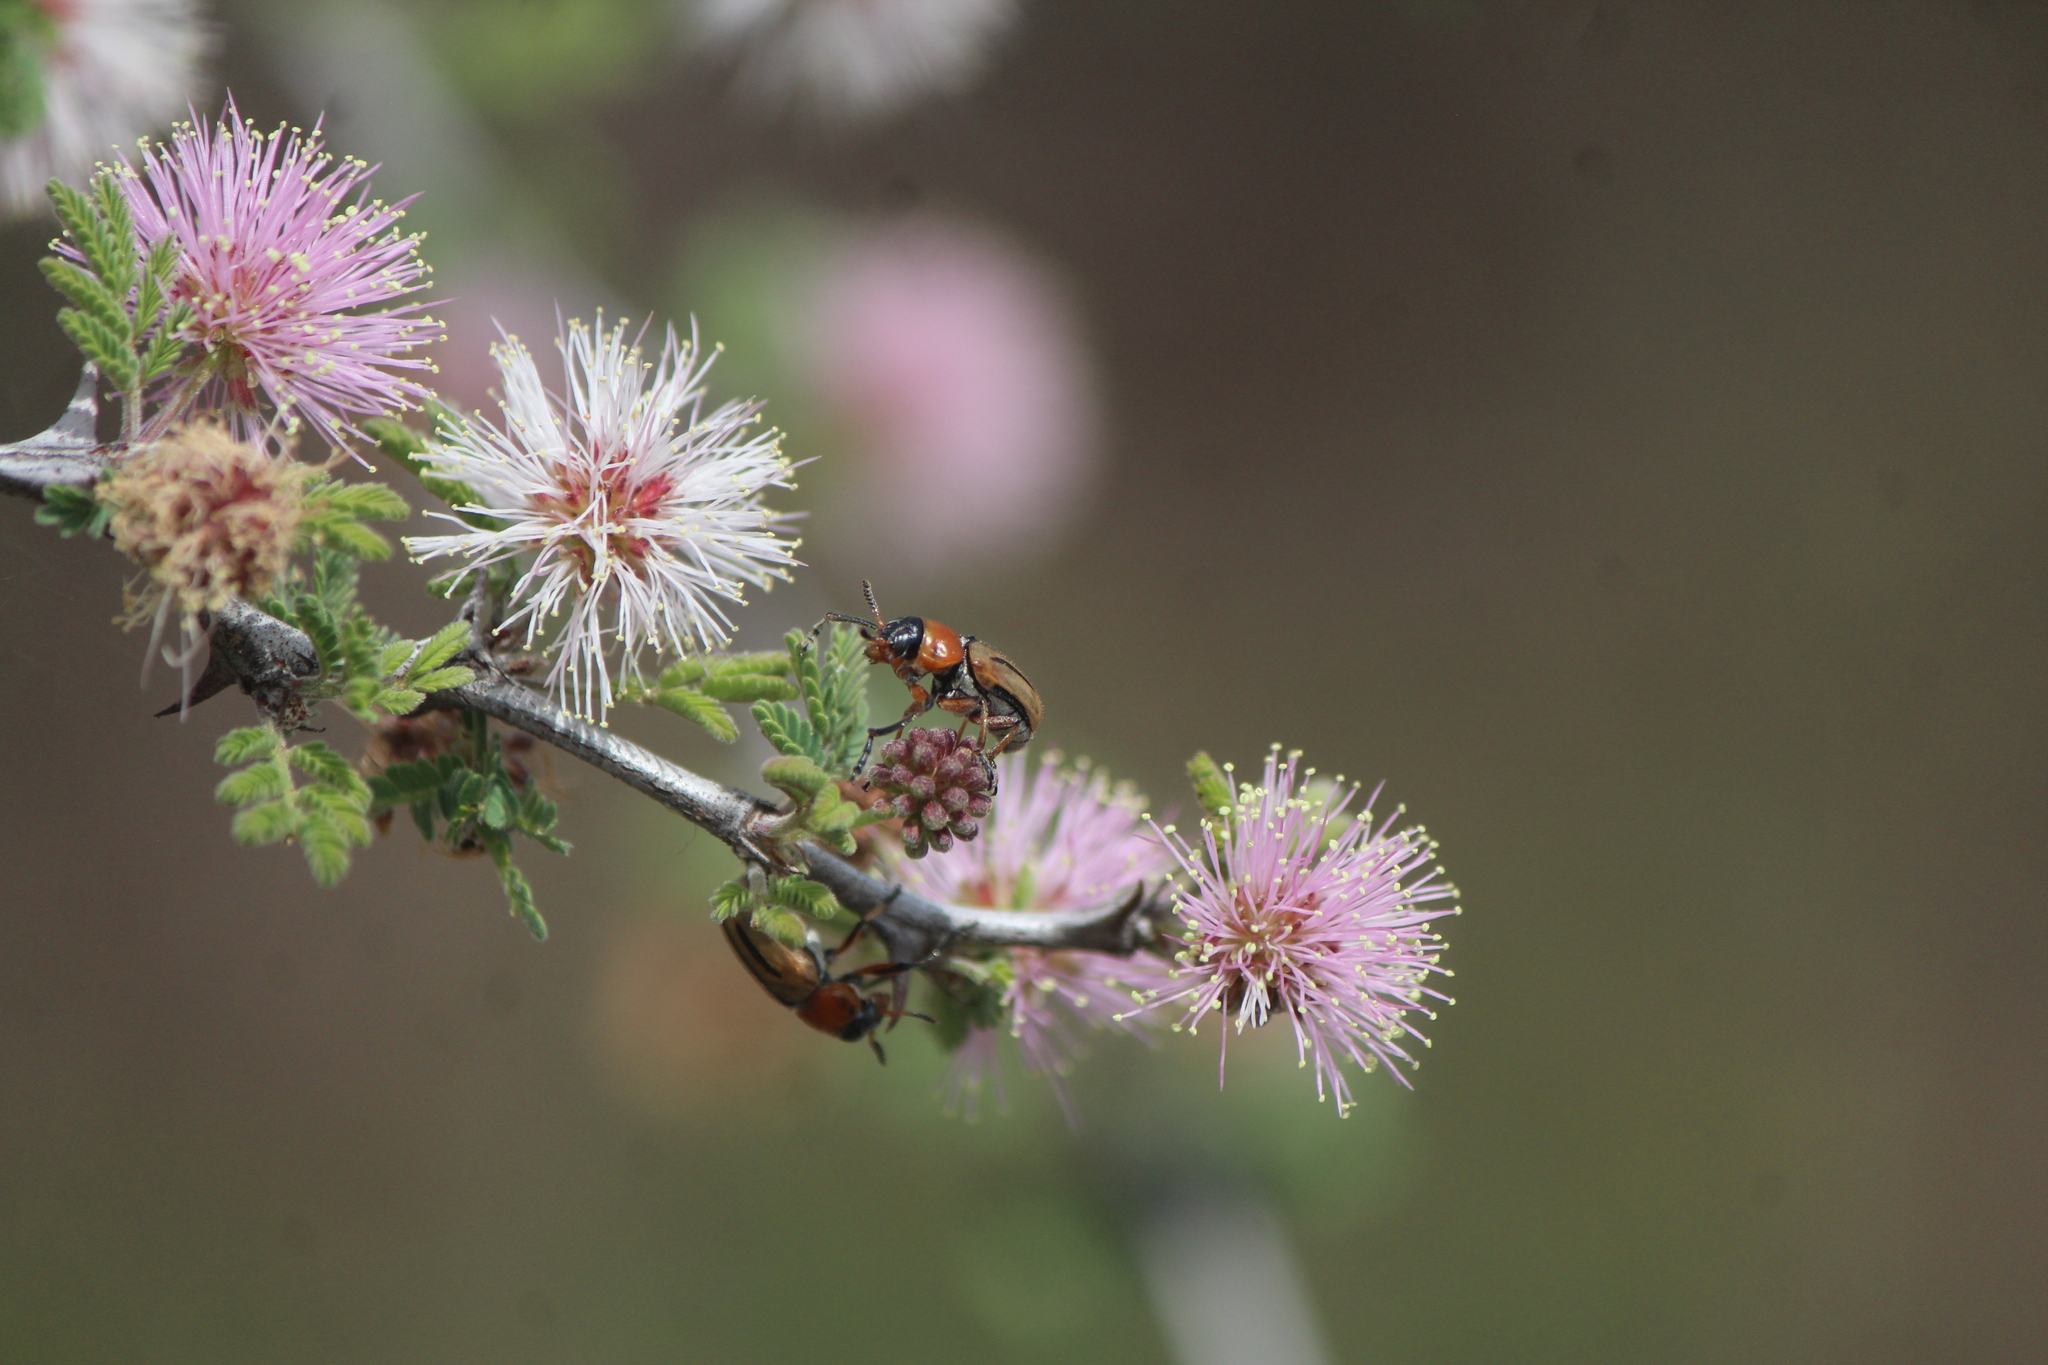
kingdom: Animalia
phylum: Arthropoda
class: Insecta
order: Coleoptera
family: Chrysomelidae
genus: Anomoea
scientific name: Anomoea rufifrons
